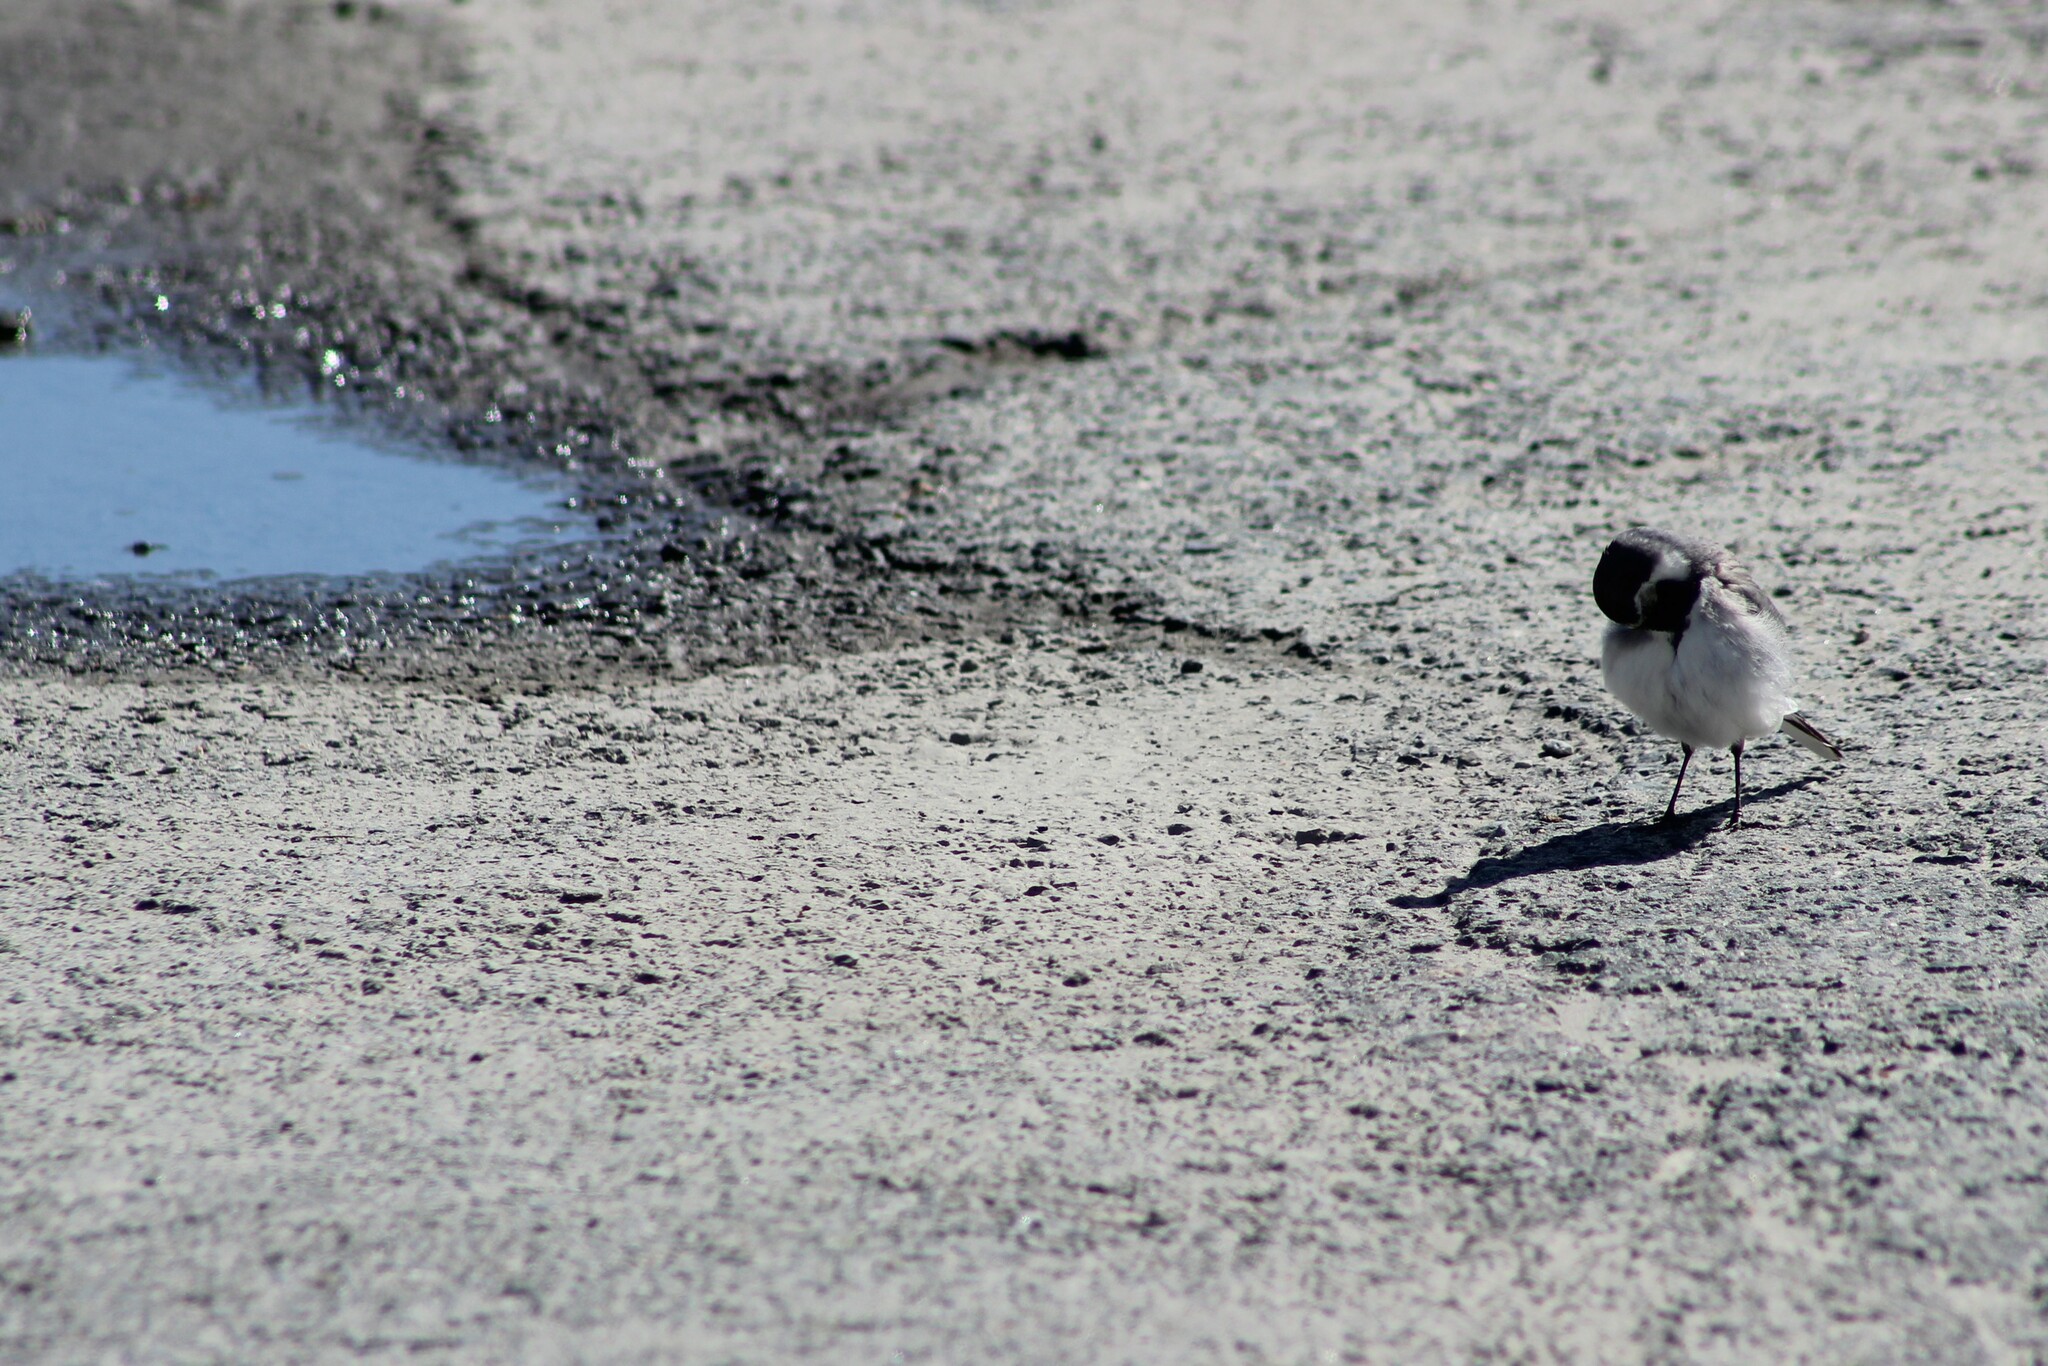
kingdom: Animalia
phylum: Chordata
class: Aves
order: Passeriformes
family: Motacillidae
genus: Motacilla
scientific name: Motacilla alba
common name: White wagtail
